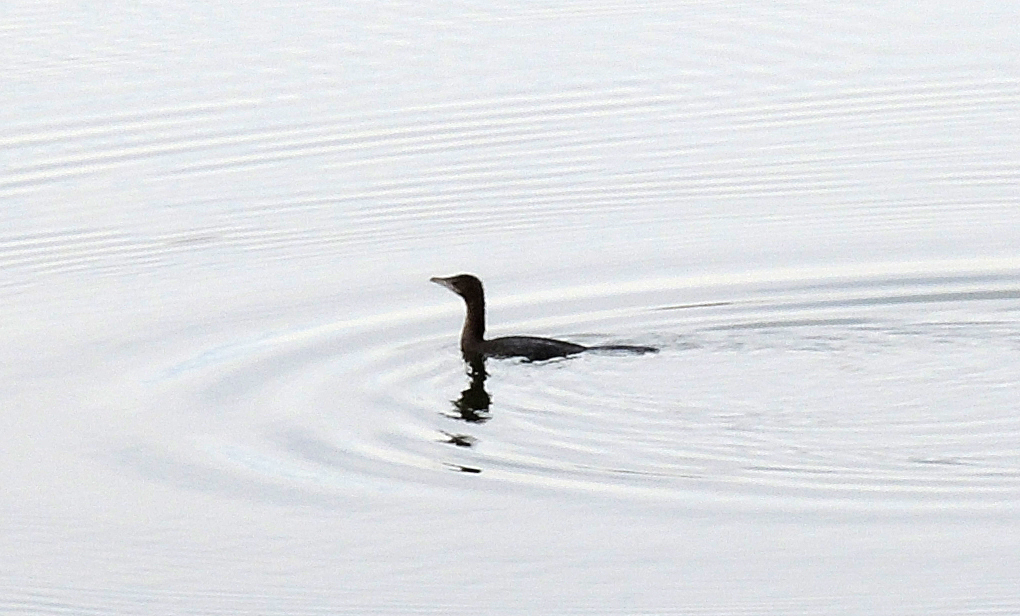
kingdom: Animalia
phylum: Chordata
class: Aves
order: Suliformes
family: Phalacrocoracidae
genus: Microcarbo
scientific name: Microcarbo pygmaeus
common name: Pygmy cormorant
